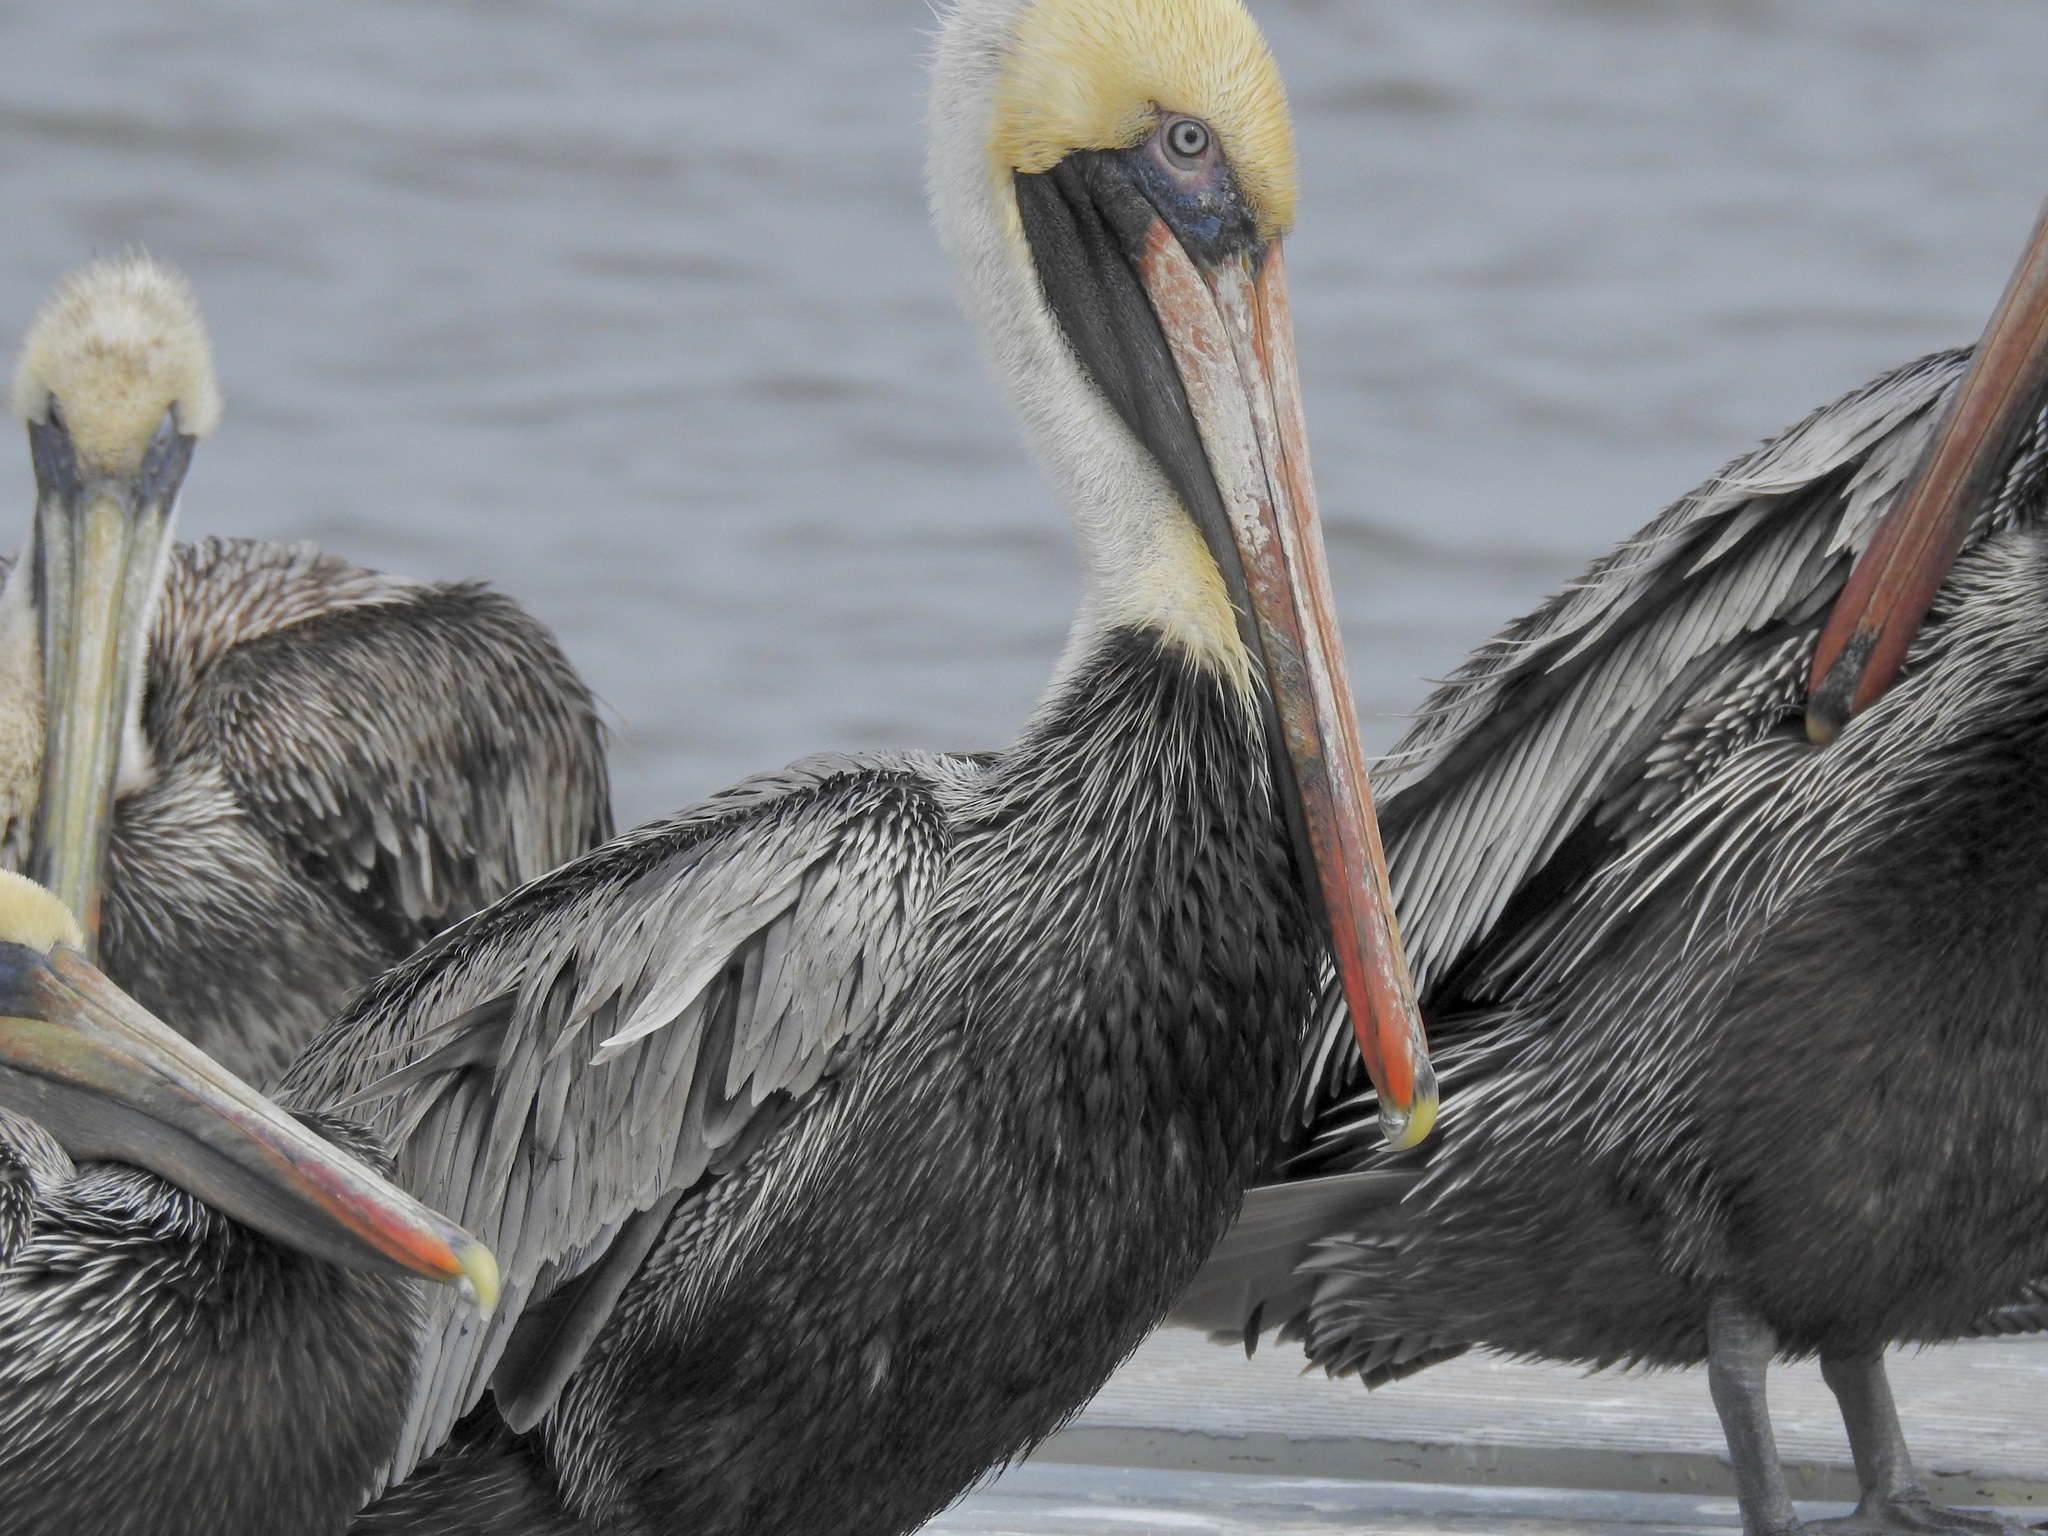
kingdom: Animalia
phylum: Chordata
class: Aves
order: Pelecaniformes
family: Pelecanidae
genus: Pelecanus
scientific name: Pelecanus occidentalis
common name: Brown pelican
